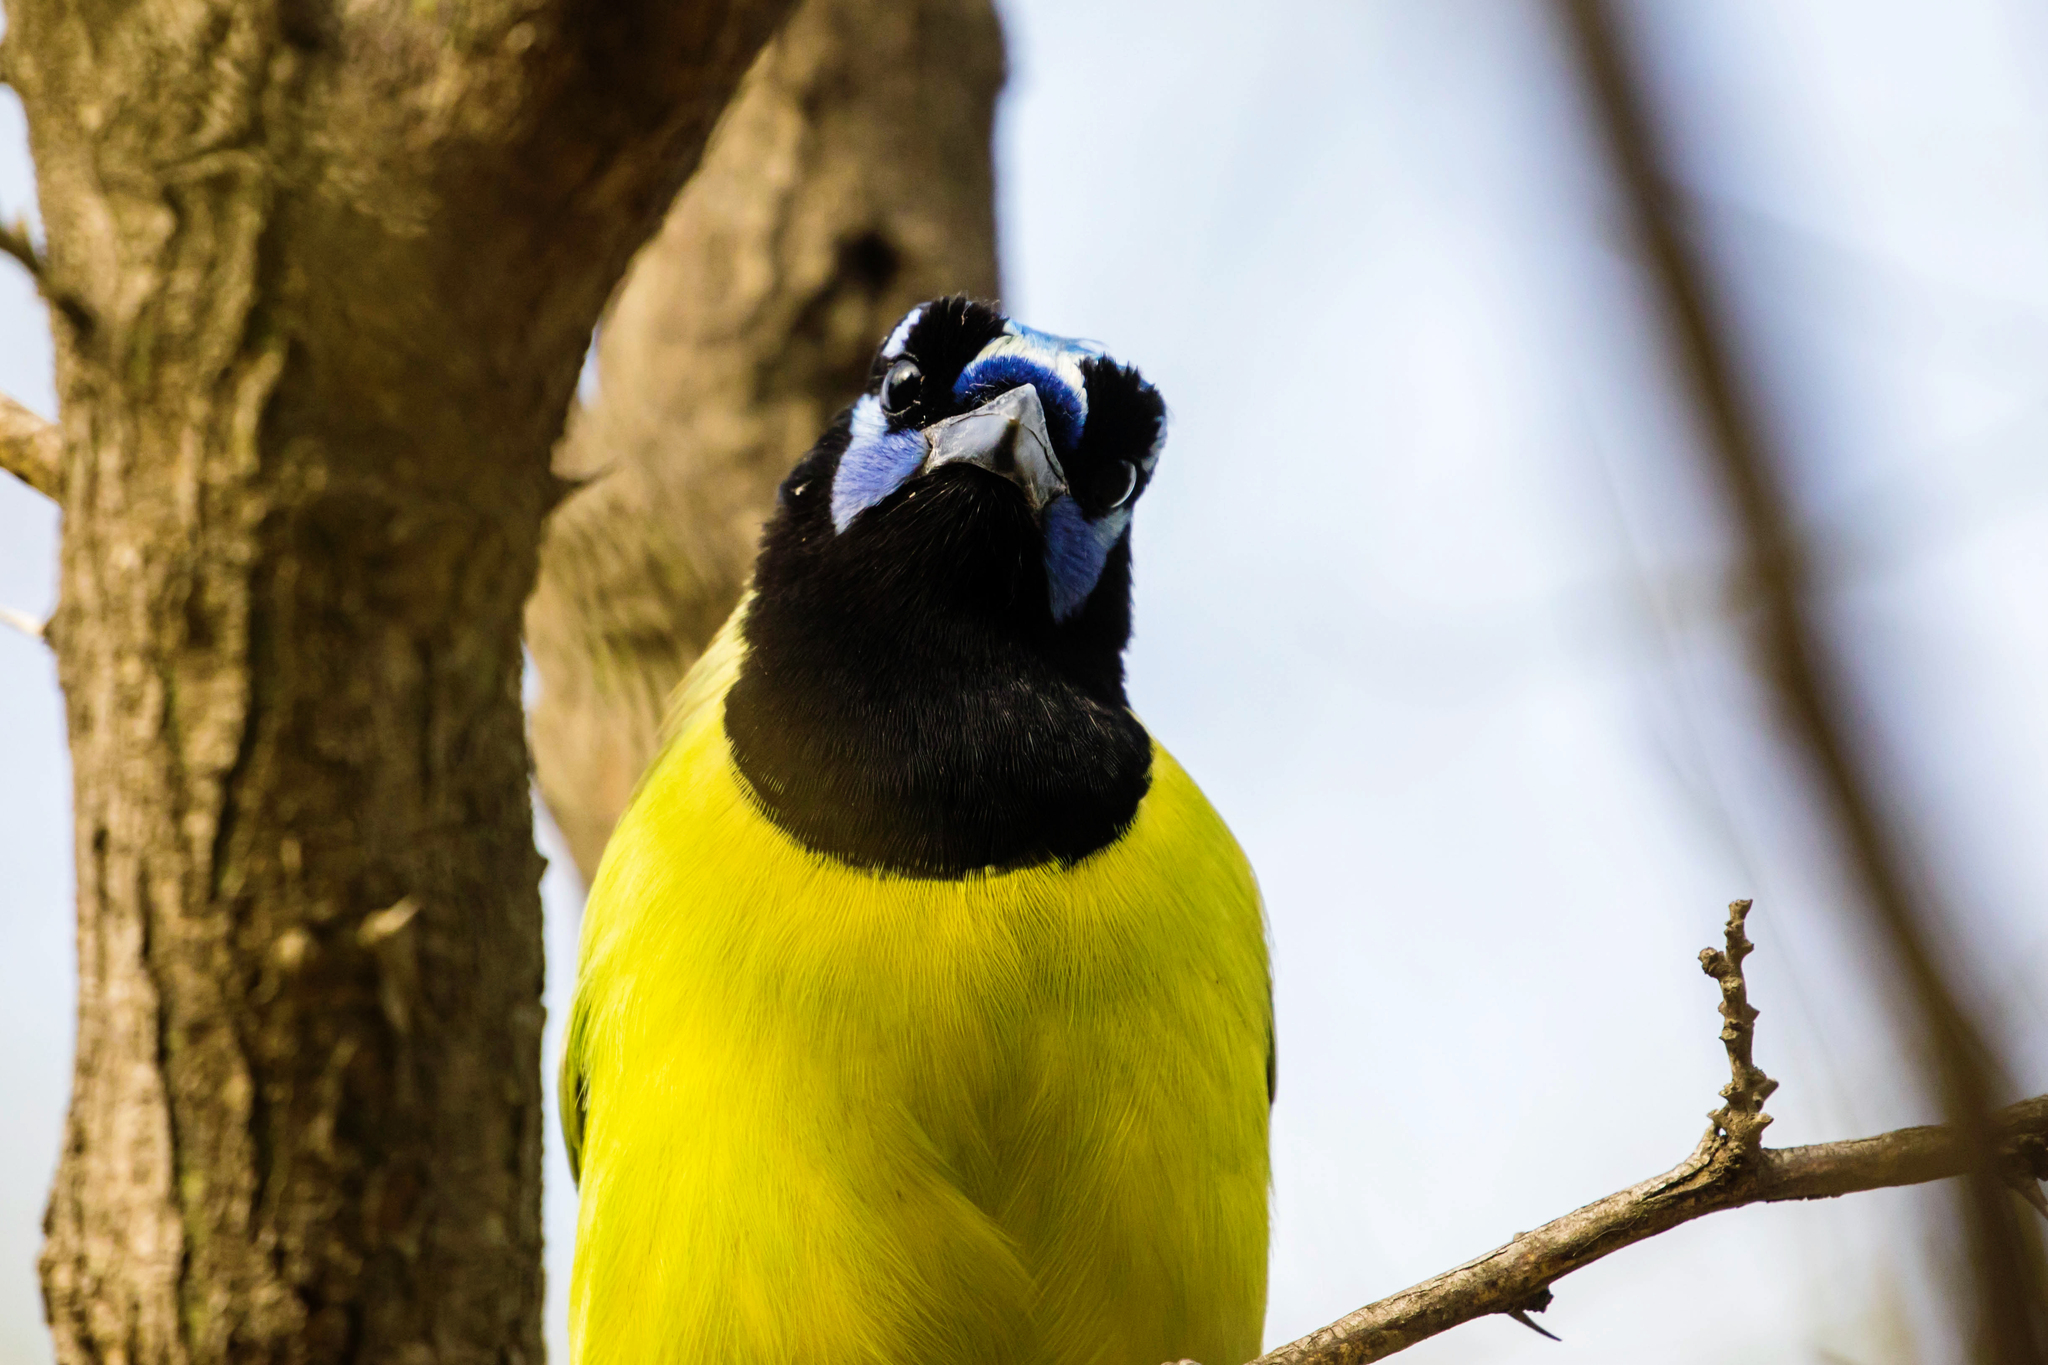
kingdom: Animalia
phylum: Chordata
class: Aves
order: Passeriformes
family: Corvidae
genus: Cyanocorax
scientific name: Cyanocorax yncas
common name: Green jay
